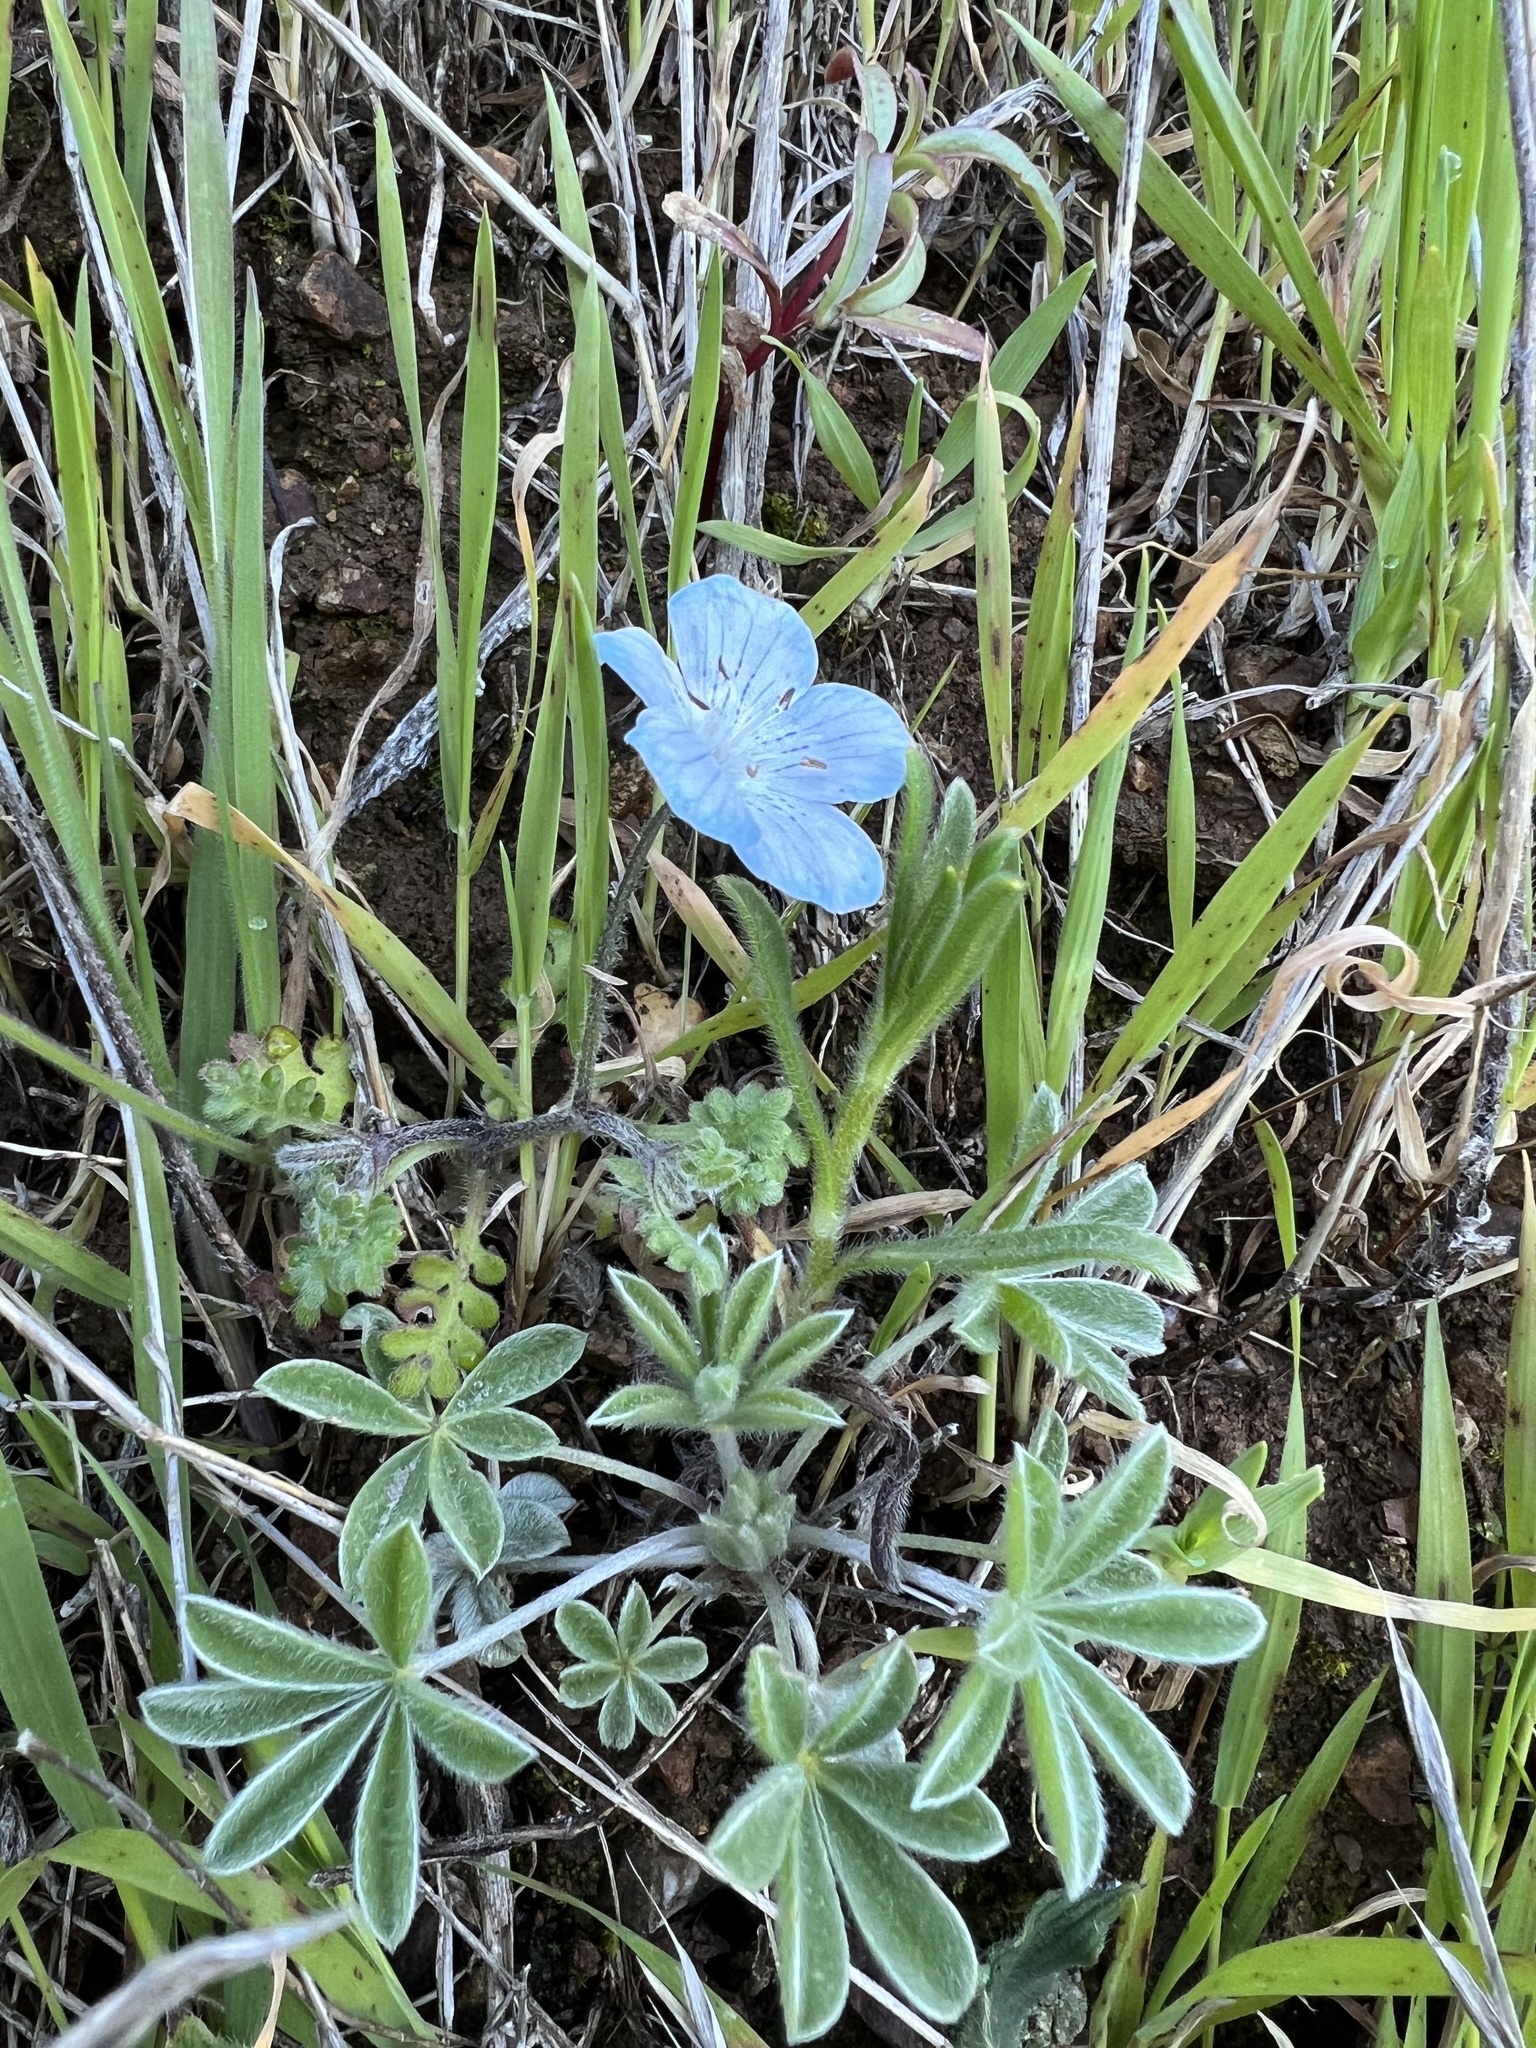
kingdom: Plantae
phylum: Tracheophyta
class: Magnoliopsida
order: Boraginales
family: Hydrophyllaceae
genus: Nemophila
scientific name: Nemophila menziesii
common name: Baby's-blue-eyes
